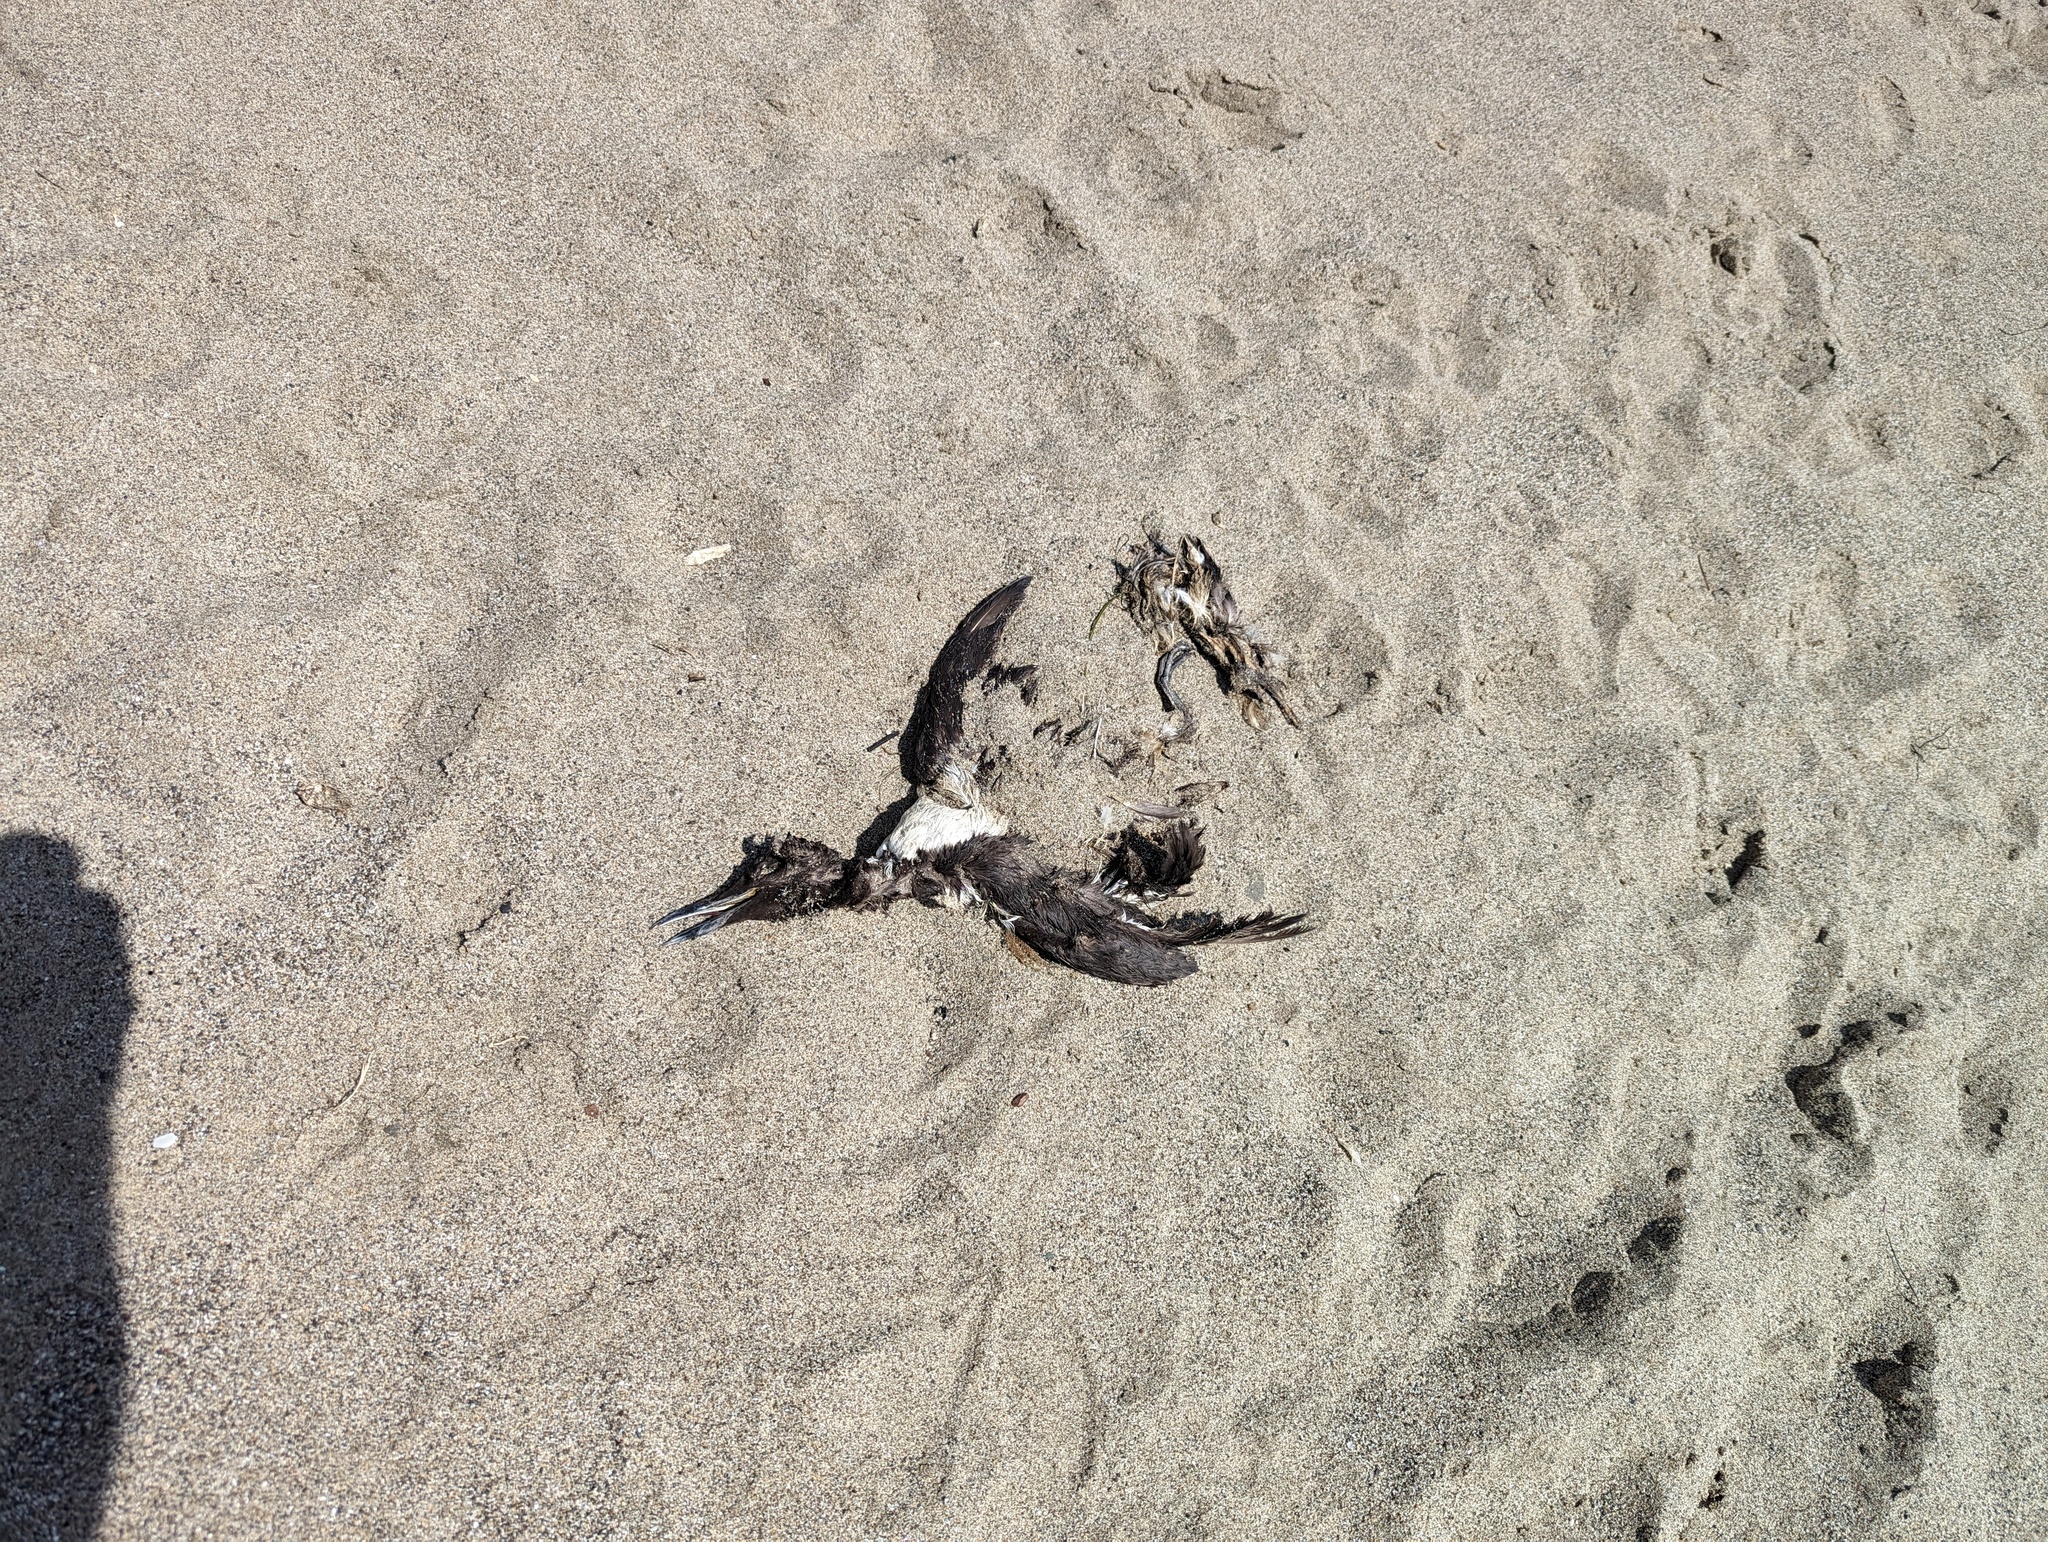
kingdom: Animalia
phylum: Chordata
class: Aves
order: Charadriiformes
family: Alcidae
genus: Uria
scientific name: Uria aalge
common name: Common murre
